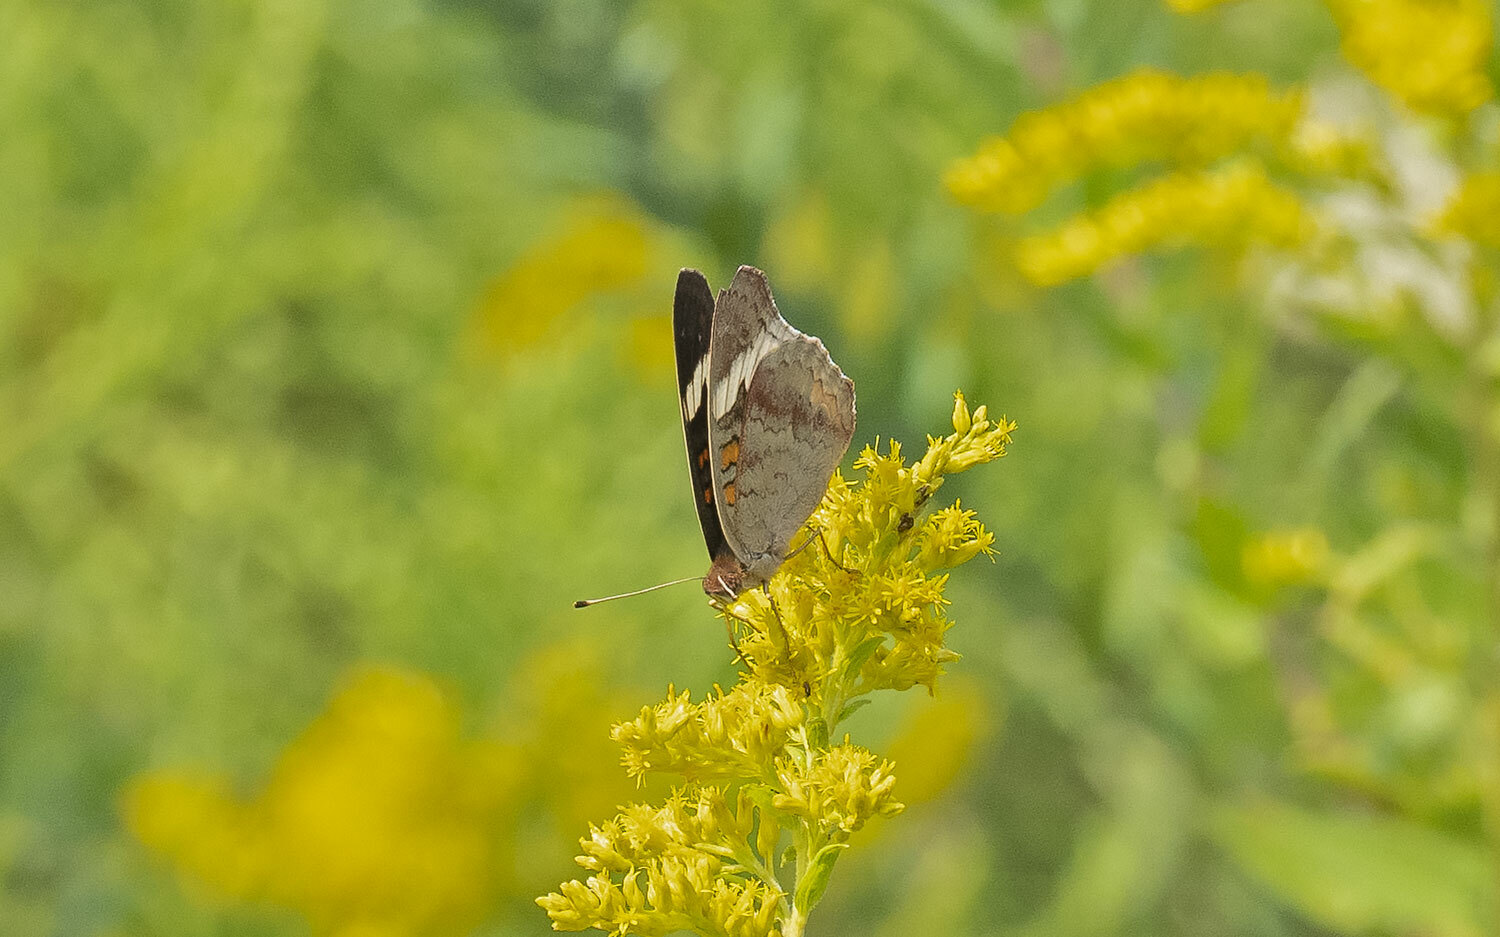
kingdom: Animalia
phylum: Arthropoda
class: Insecta
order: Lepidoptera
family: Nymphalidae
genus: Junonia
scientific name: Junonia coenia
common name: Common buckeye
